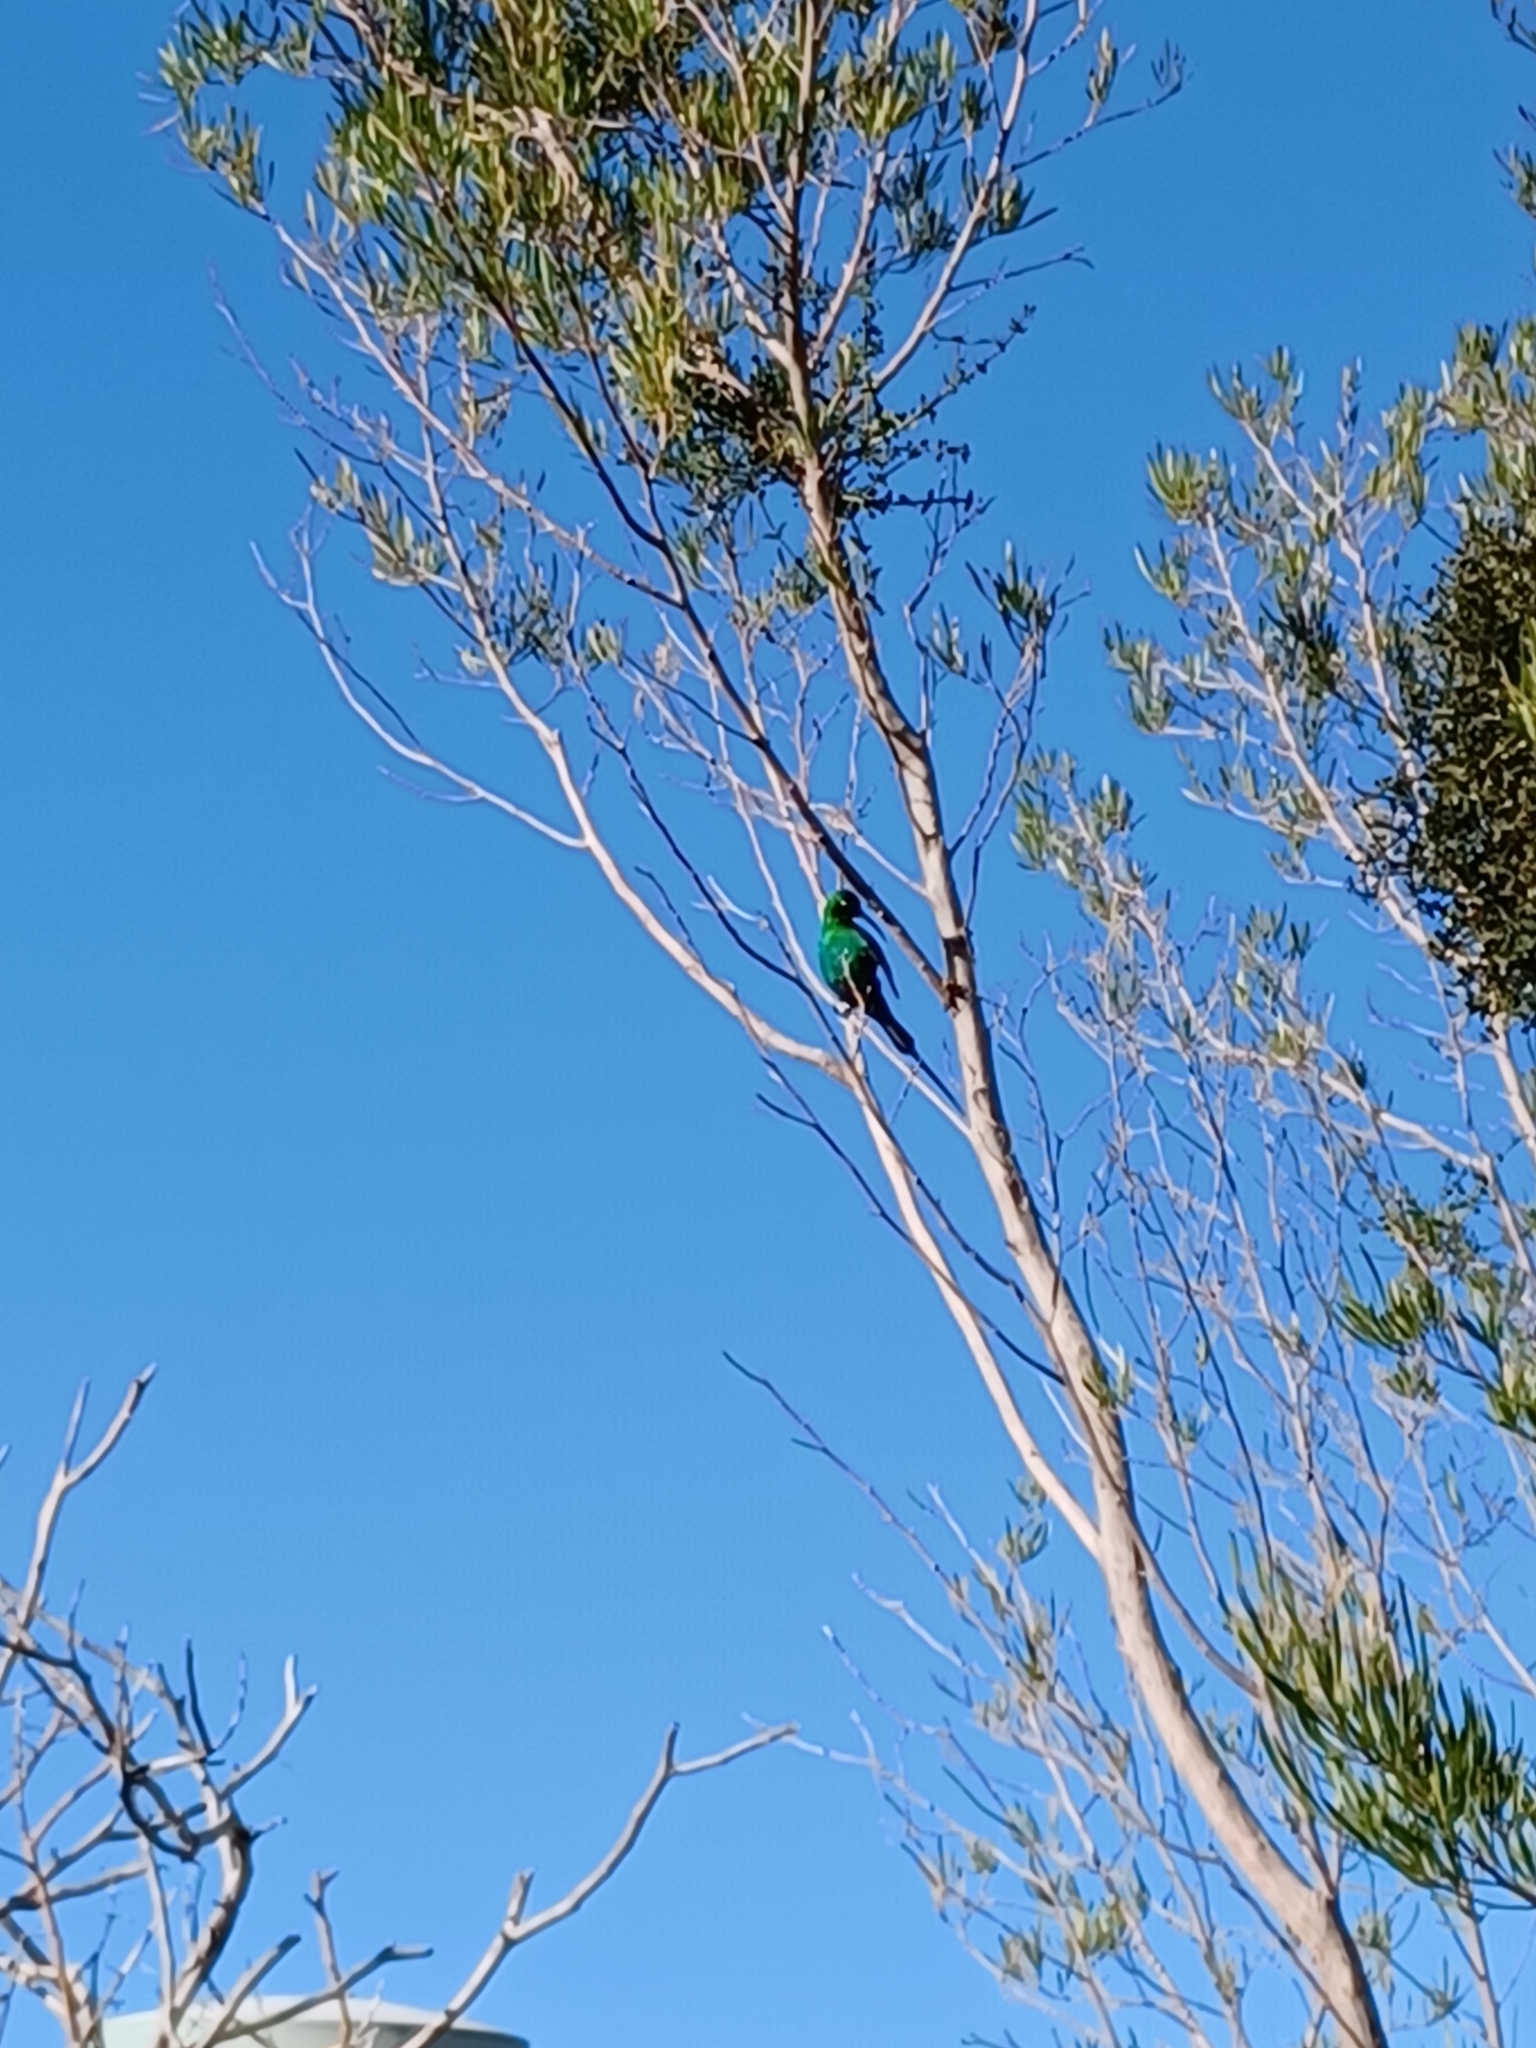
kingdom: Animalia
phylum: Chordata
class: Aves
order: Passeriformes
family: Nectariniidae
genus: Nectarinia
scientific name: Nectarinia famosa
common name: Malachite sunbird
